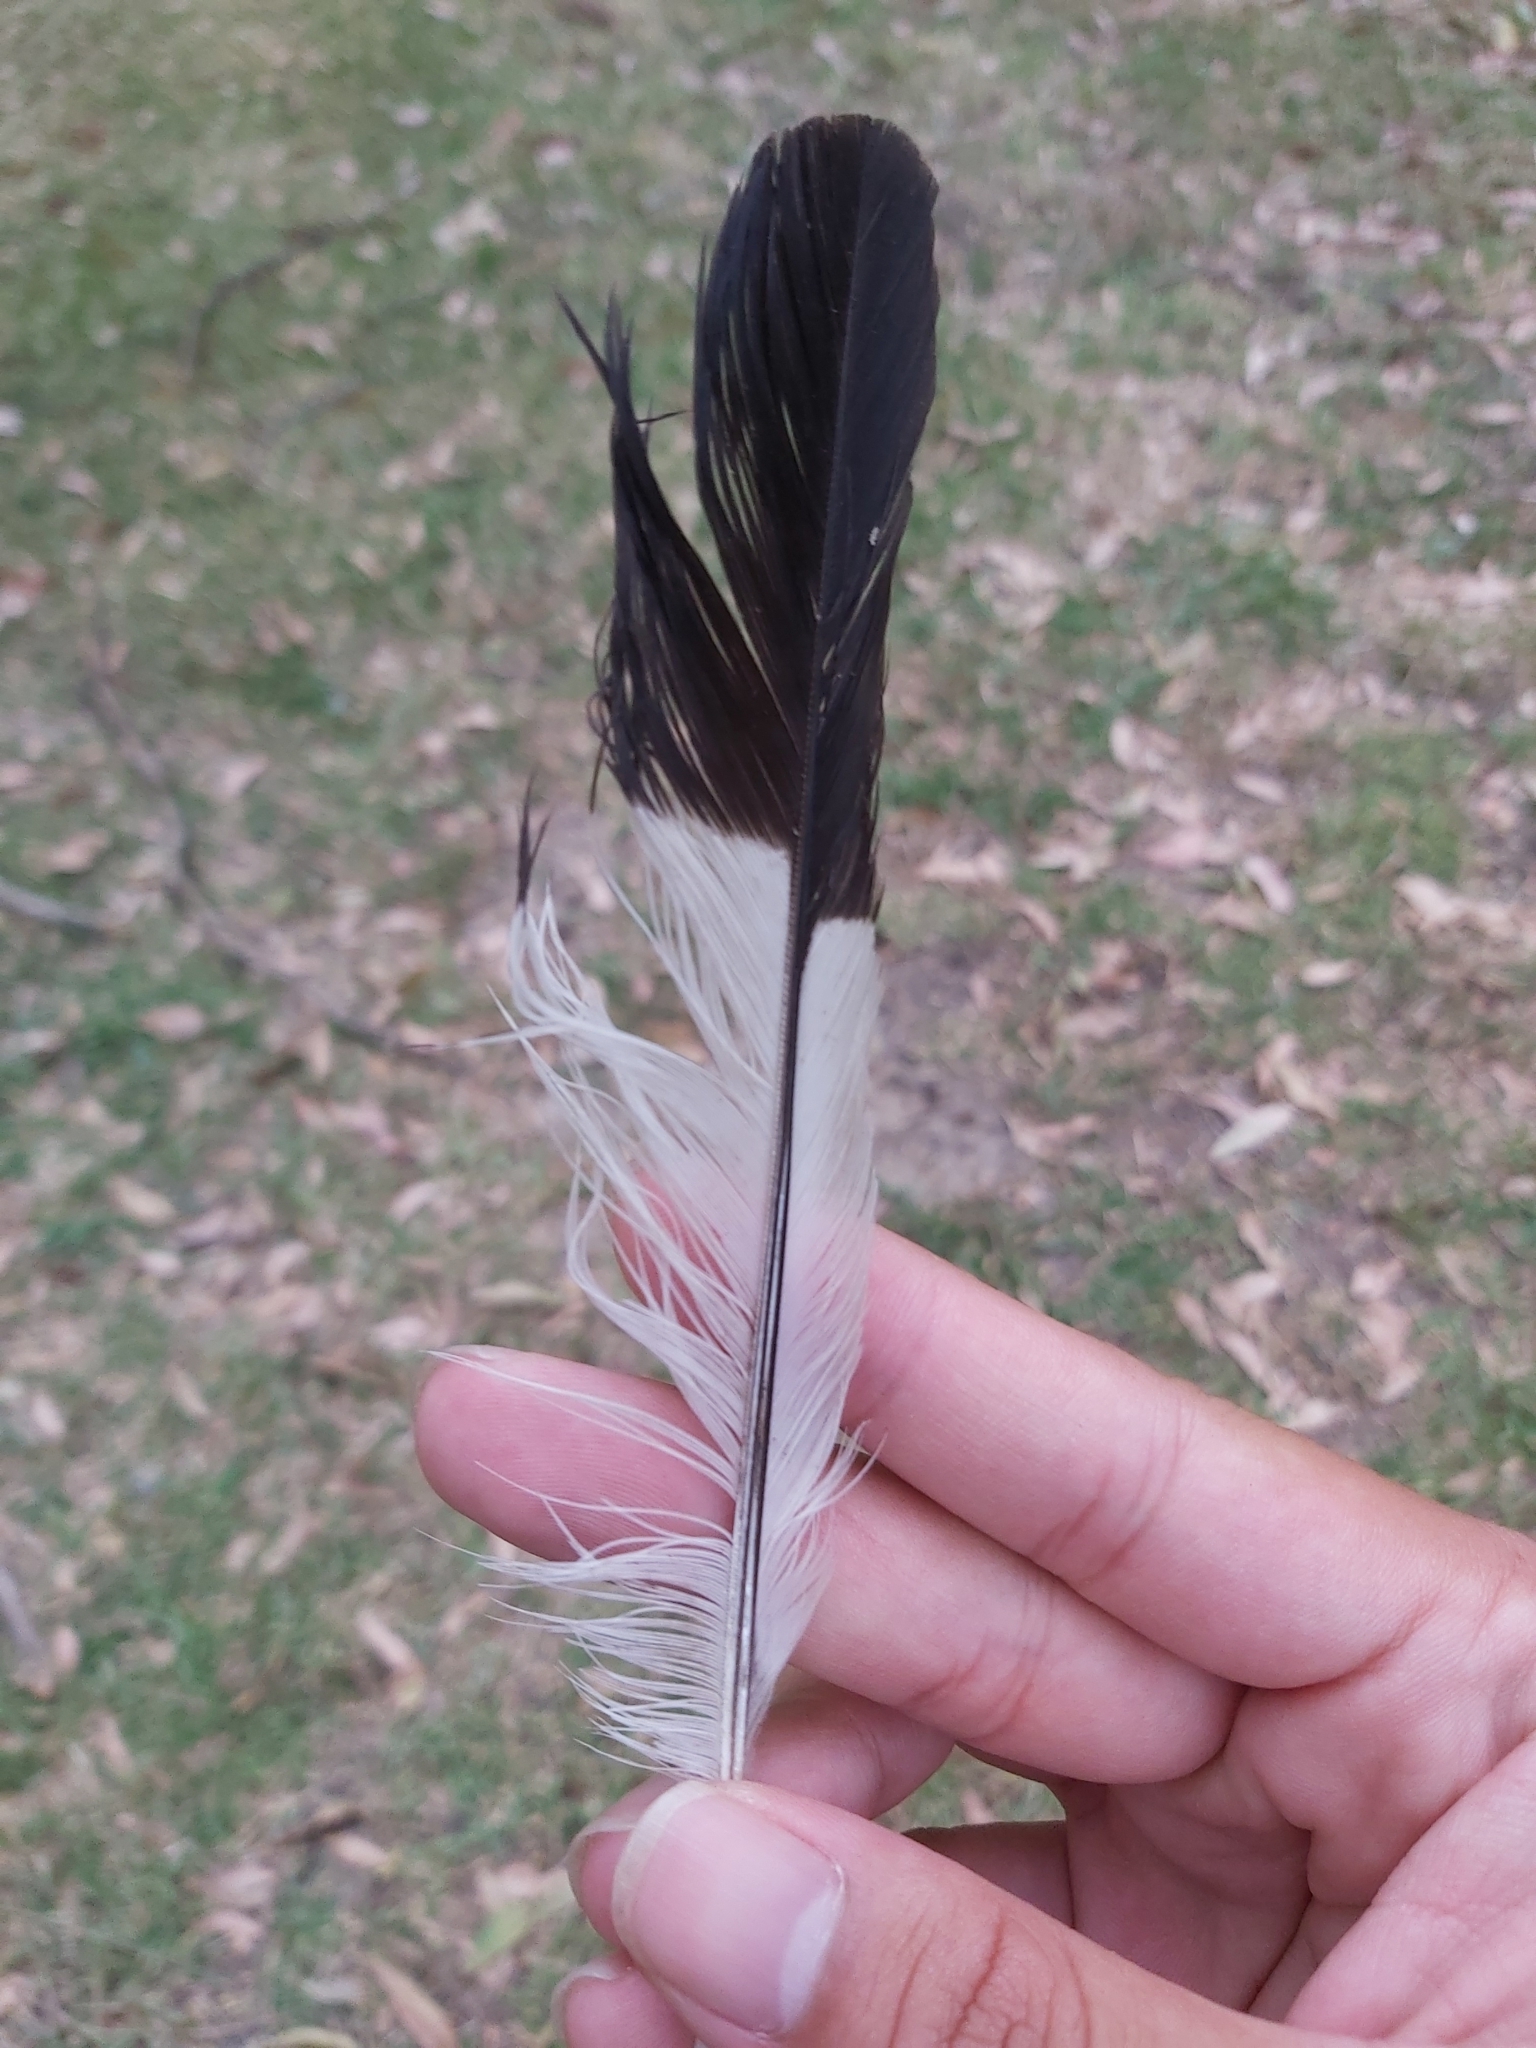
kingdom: Animalia
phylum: Chordata
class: Aves
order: Passeriformes
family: Cracticidae
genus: Gymnorhina
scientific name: Gymnorhina tibicen
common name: Australian magpie
